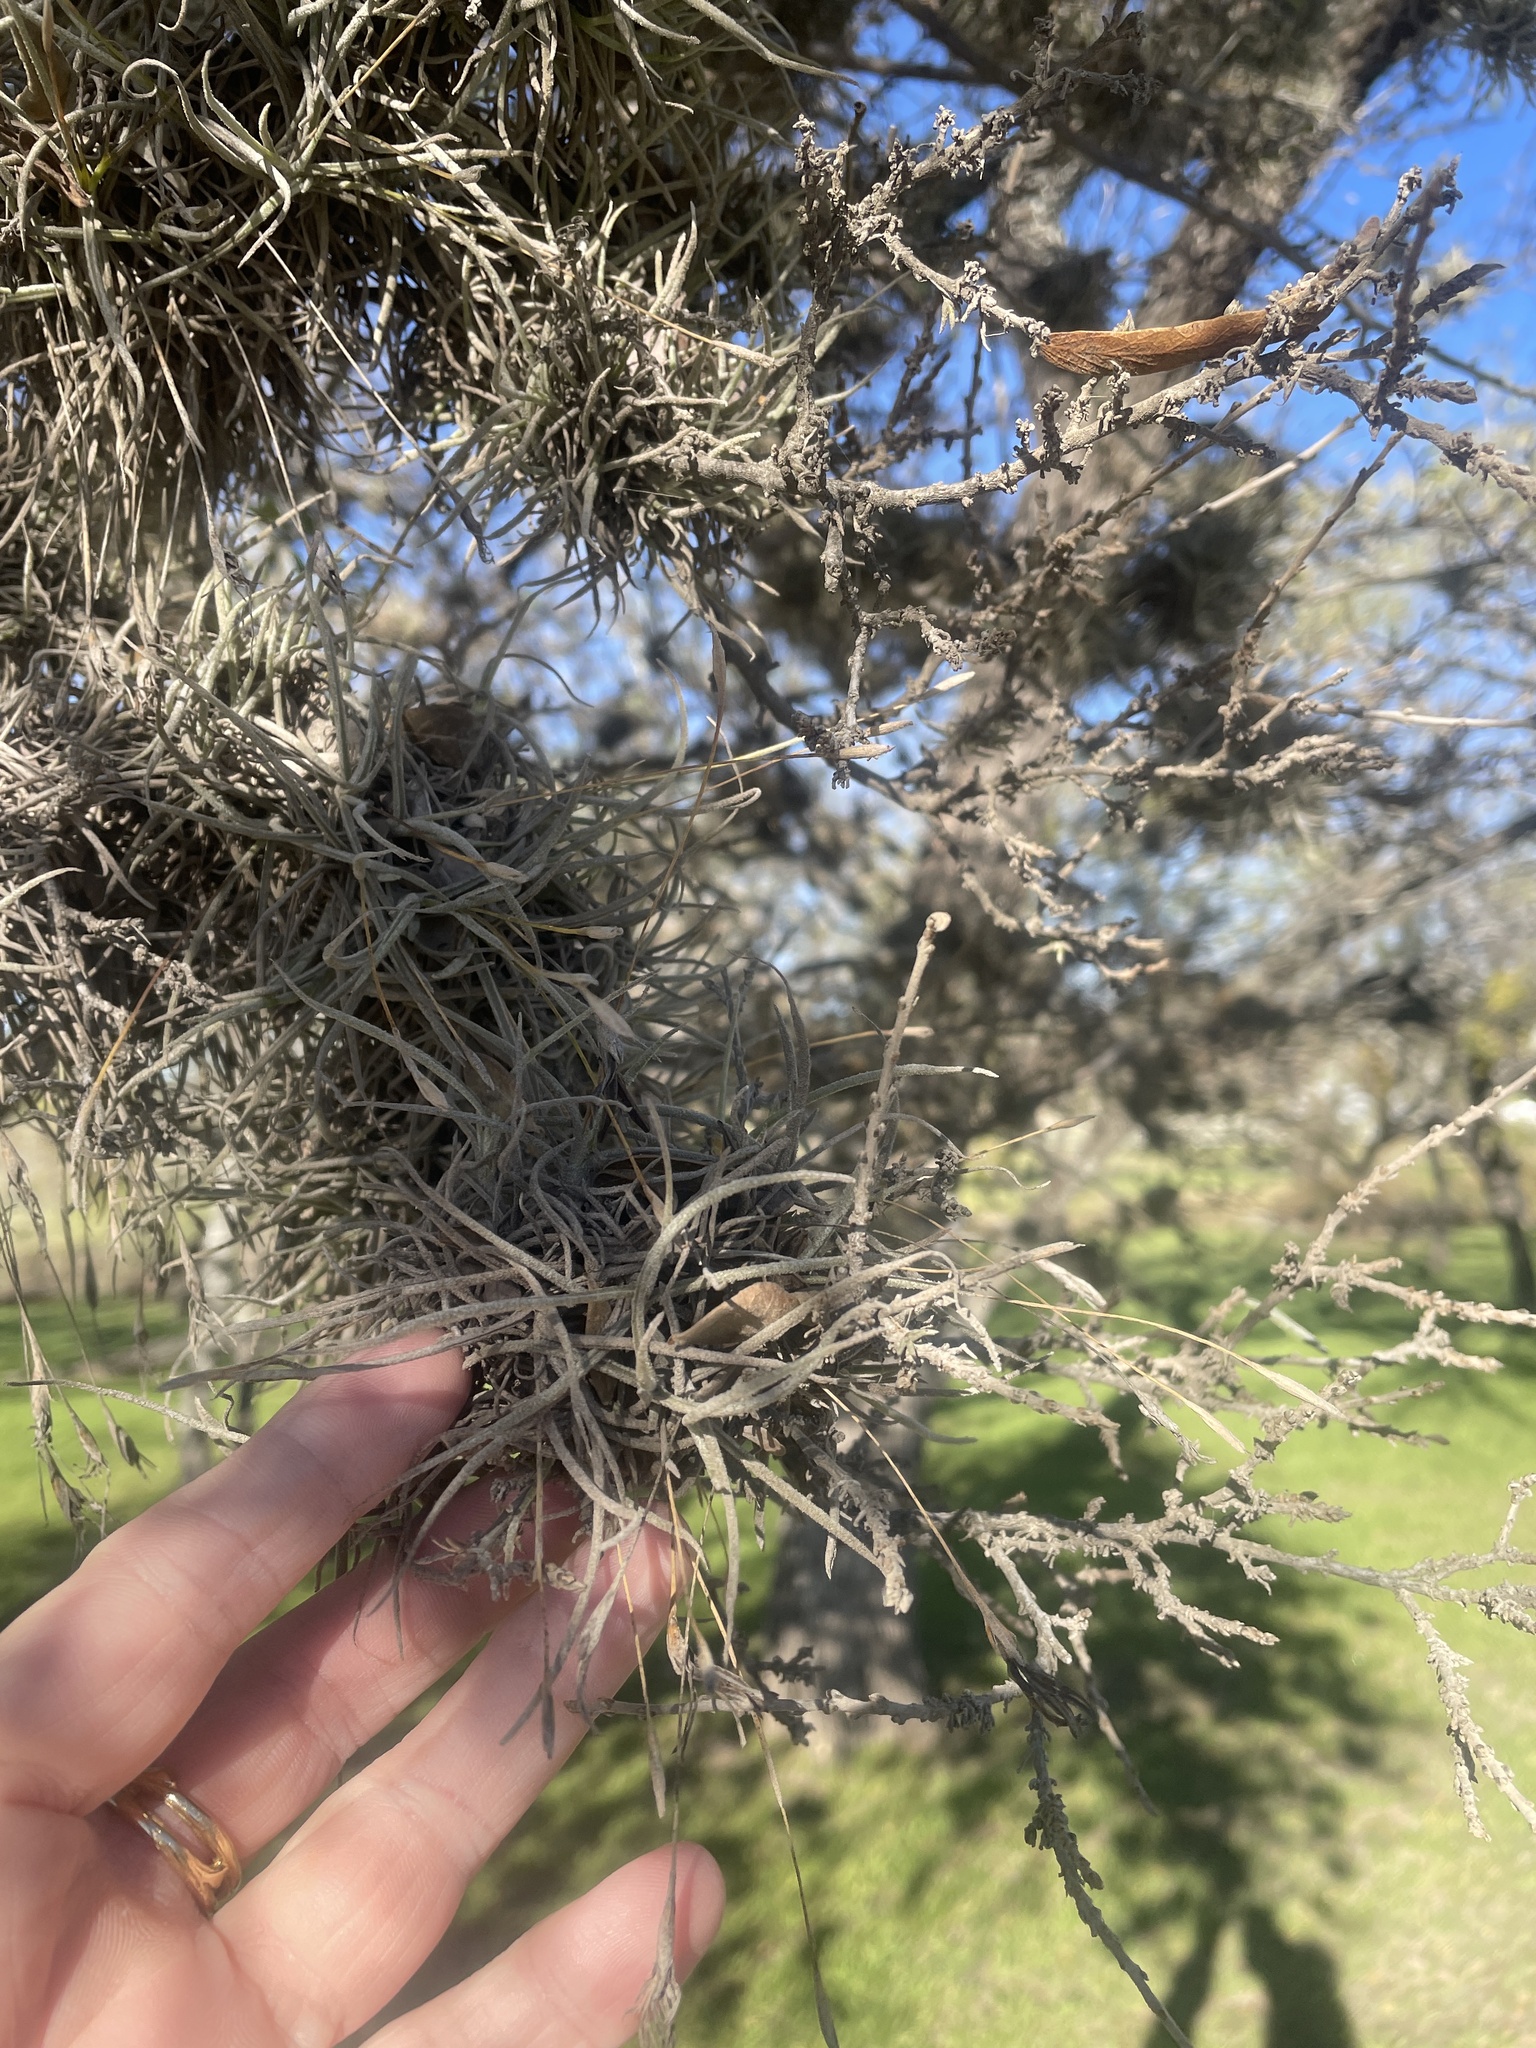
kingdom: Plantae
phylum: Tracheophyta
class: Liliopsida
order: Poales
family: Bromeliaceae
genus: Tillandsia
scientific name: Tillandsia recurvata
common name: Small ballmoss
